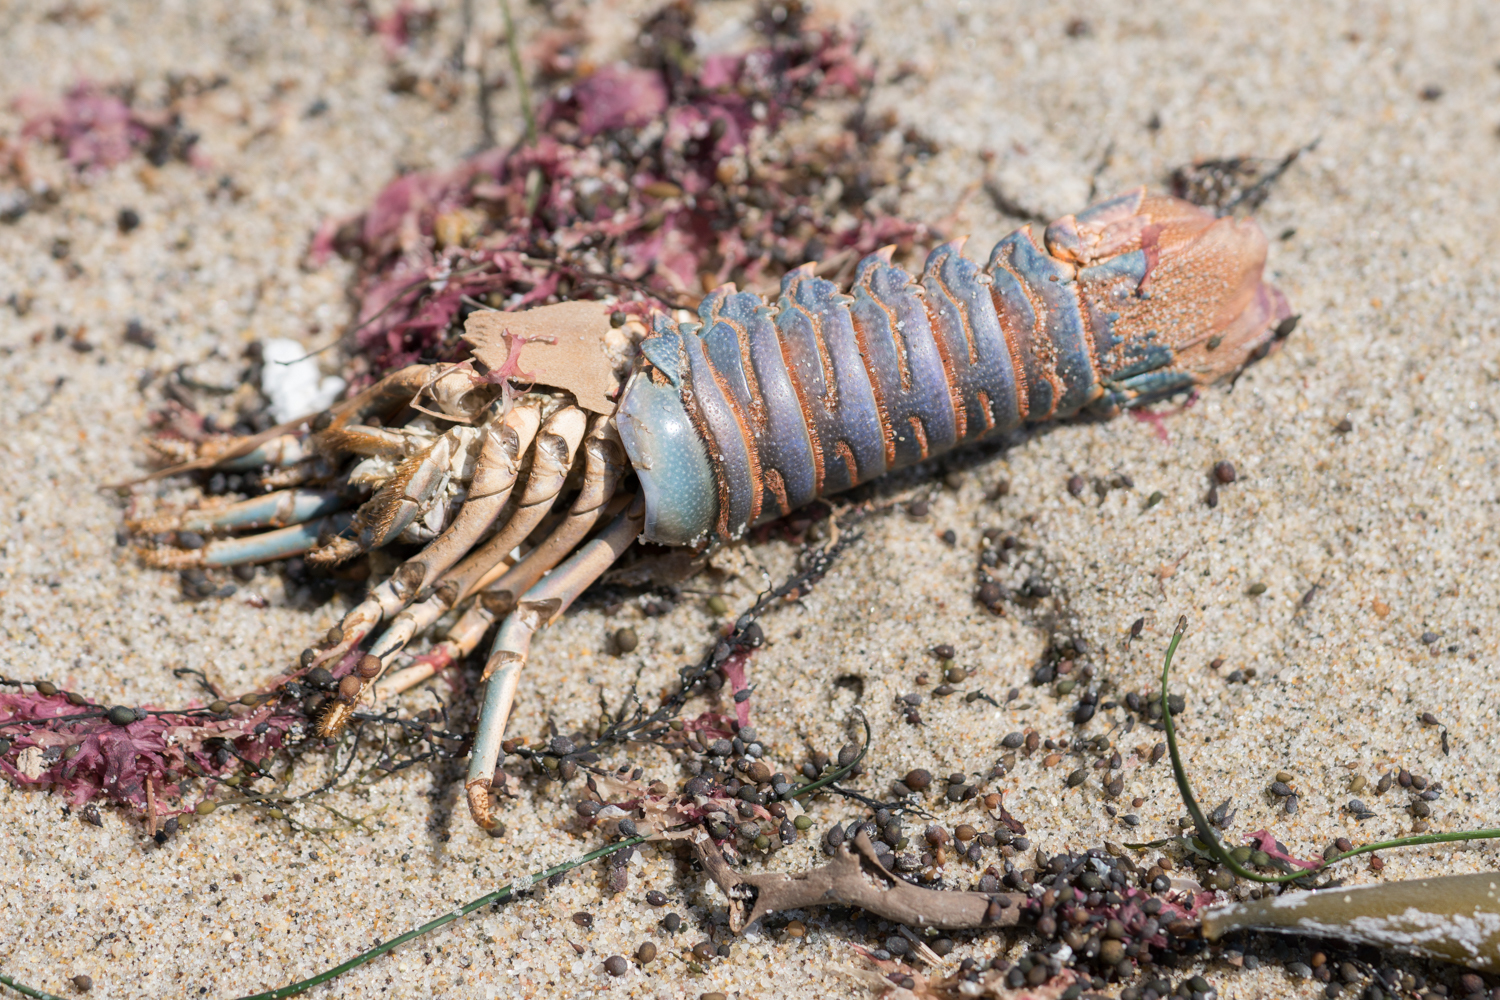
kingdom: Animalia
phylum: Arthropoda
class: Malacostraca
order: Decapoda
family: Palinuridae
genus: Panulirus
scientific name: Panulirus interruptus
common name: California spiny lobster
